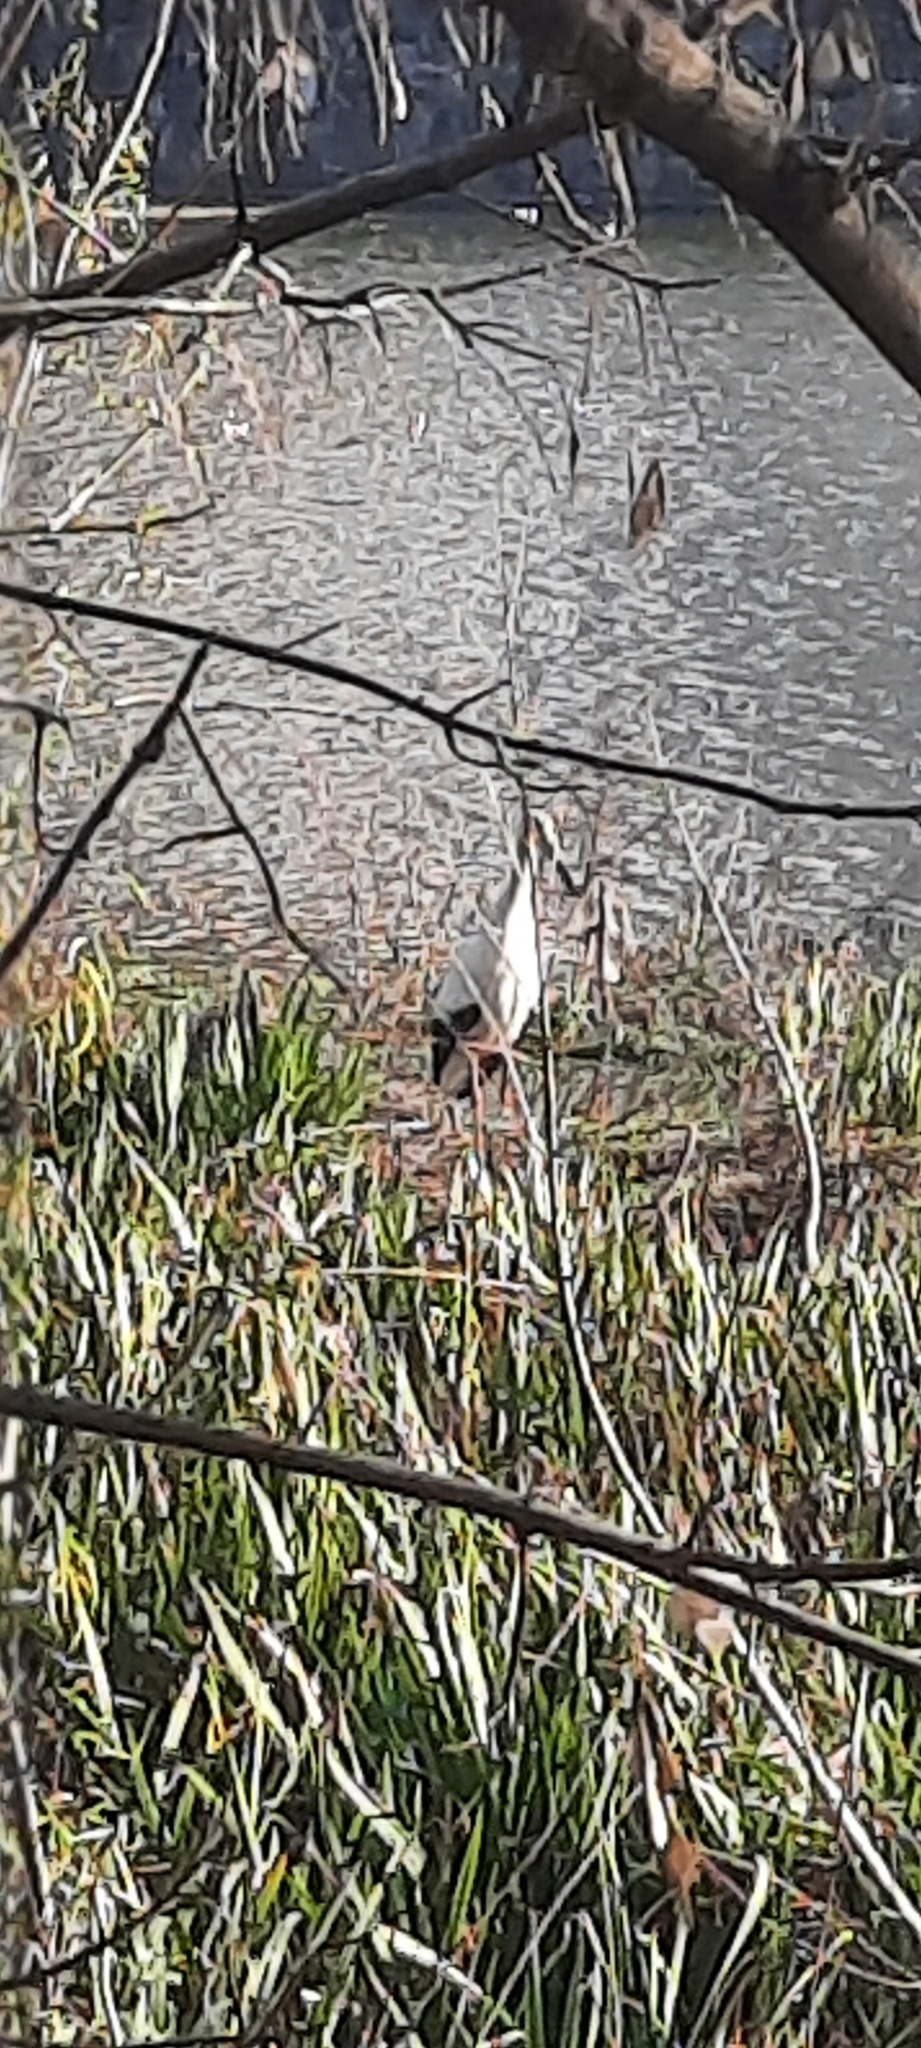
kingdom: Animalia
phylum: Chordata
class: Aves
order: Ciconiiformes
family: Ciconiidae
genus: Ciconia
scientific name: Ciconia maguari
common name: Maguari stork
